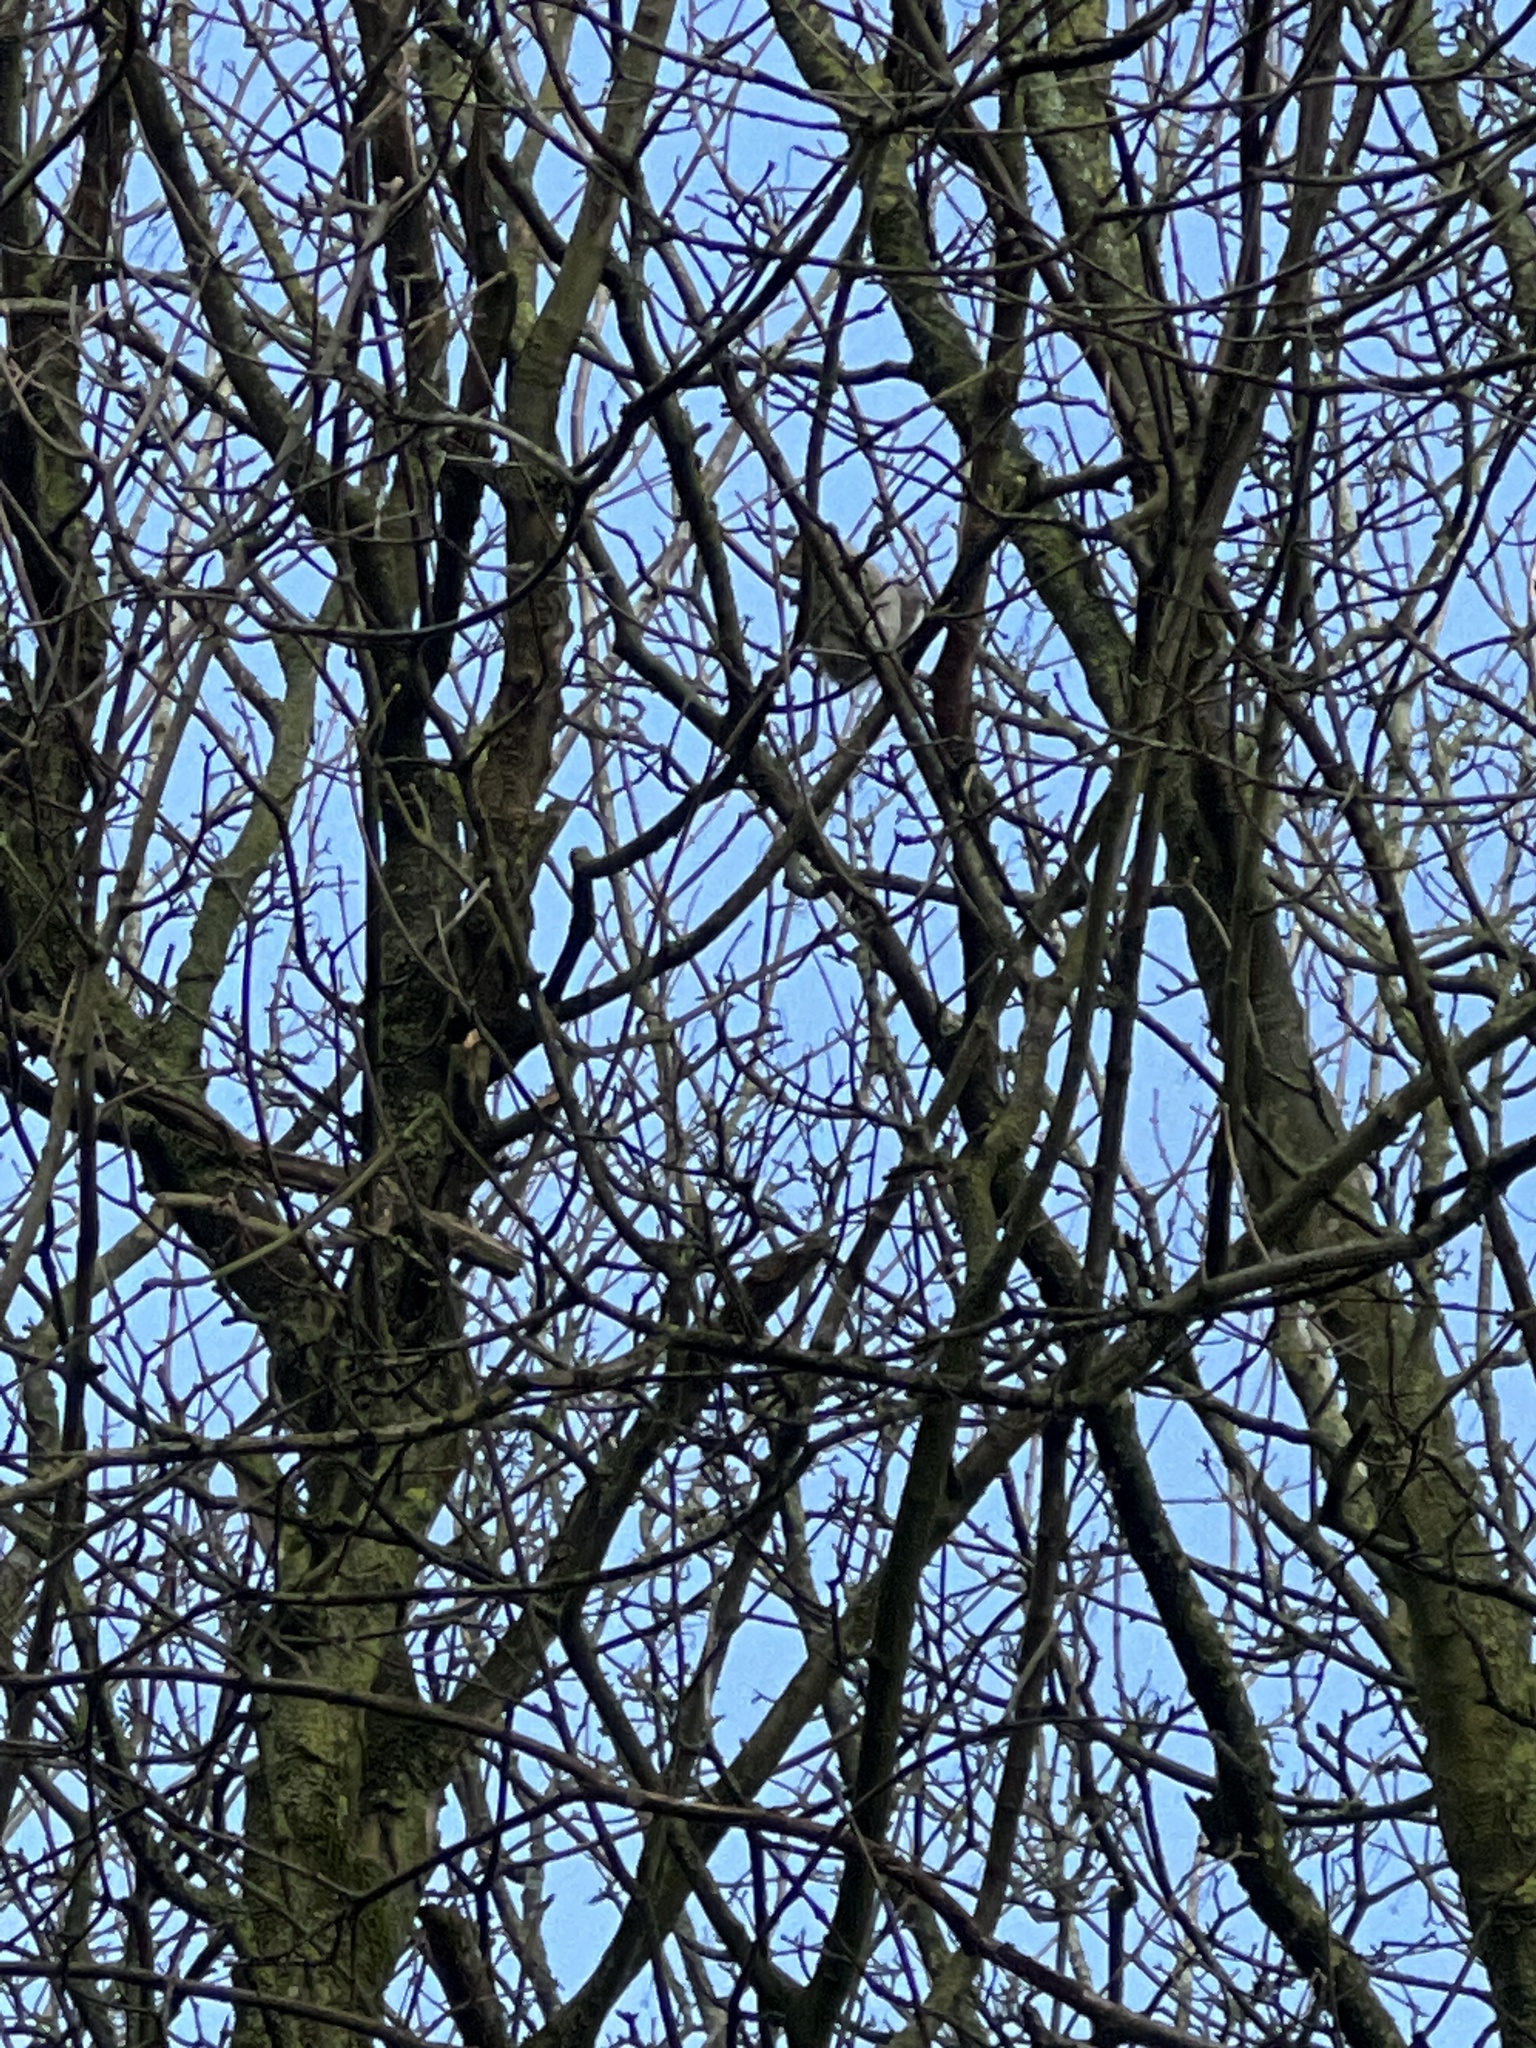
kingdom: Animalia
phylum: Chordata
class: Mammalia
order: Rodentia
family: Sciuridae
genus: Sciurus
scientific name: Sciurus carolinensis
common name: Eastern gray squirrel
